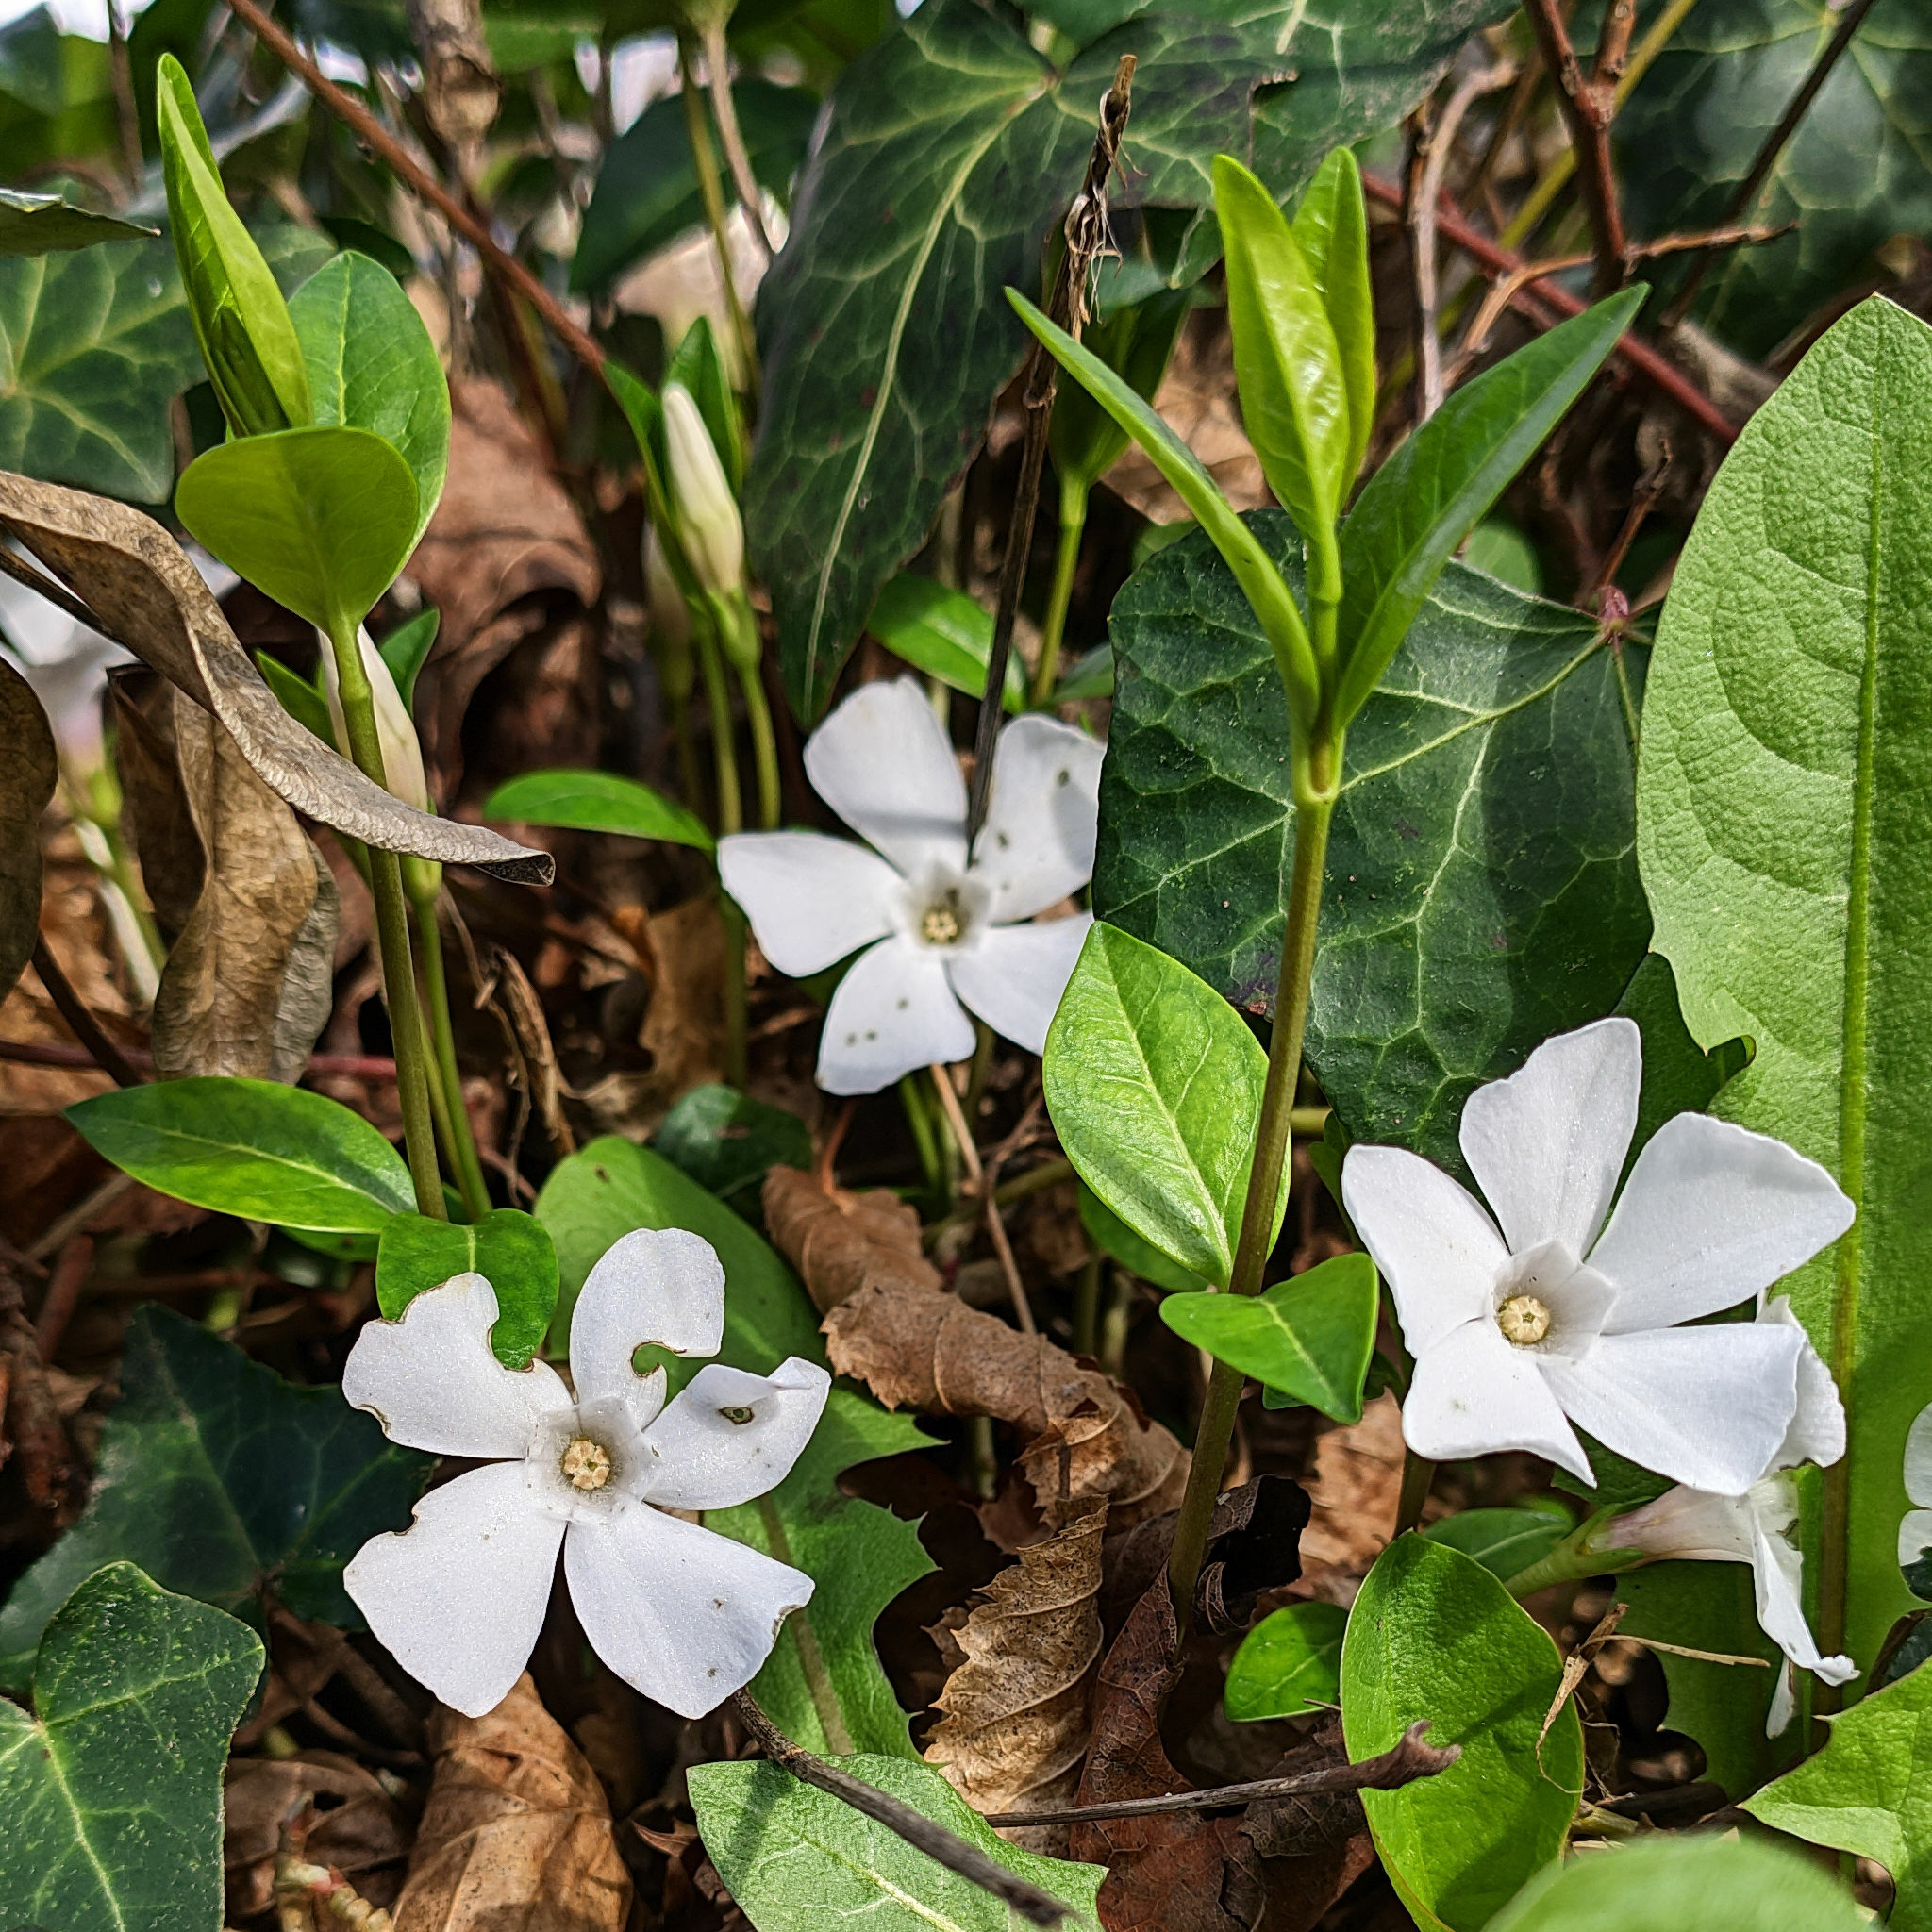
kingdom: Plantae
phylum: Tracheophyta
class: Magnoliopsida
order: Gentianales
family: Apocynaceae
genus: Vinca
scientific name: Vinca minor
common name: Lesser periwinkle
